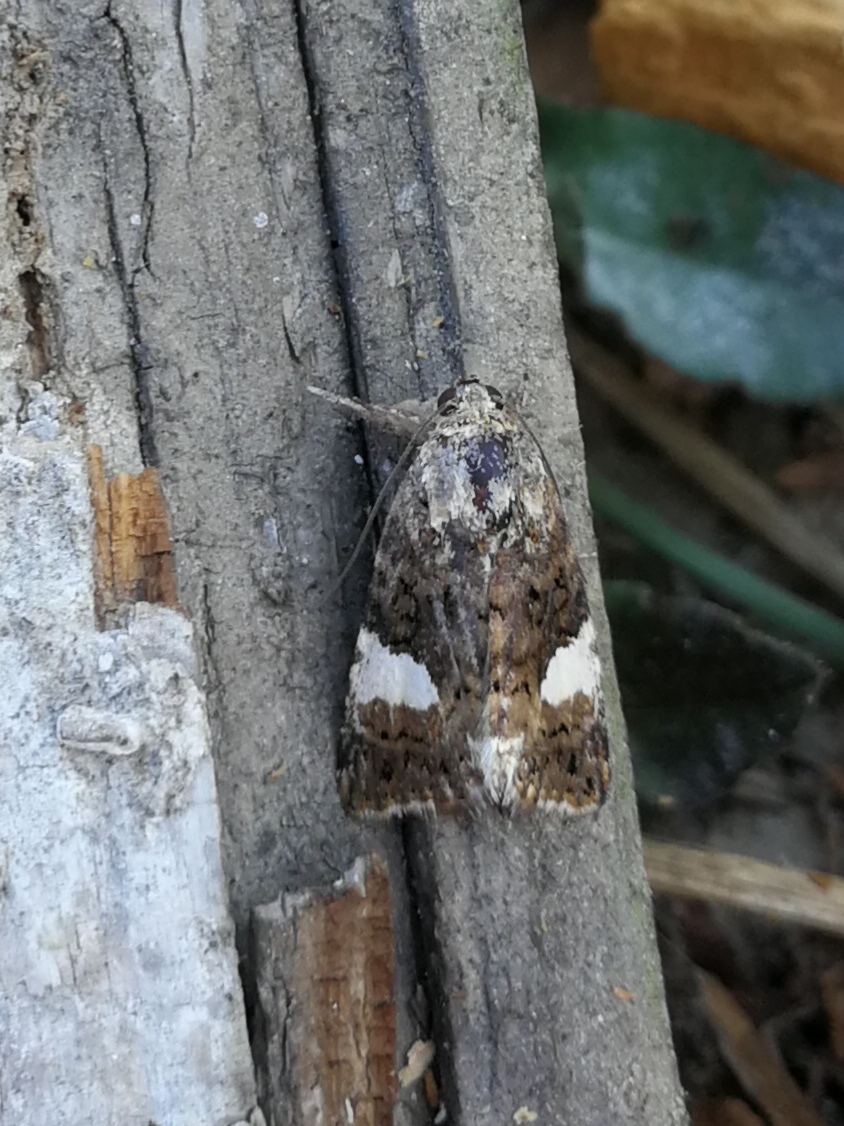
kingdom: Animalia
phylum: Arthropoda
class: Insecta
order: Lepidoptera
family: Erebidae
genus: Tyta
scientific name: Tyta luctuosa
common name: Four-spotted
